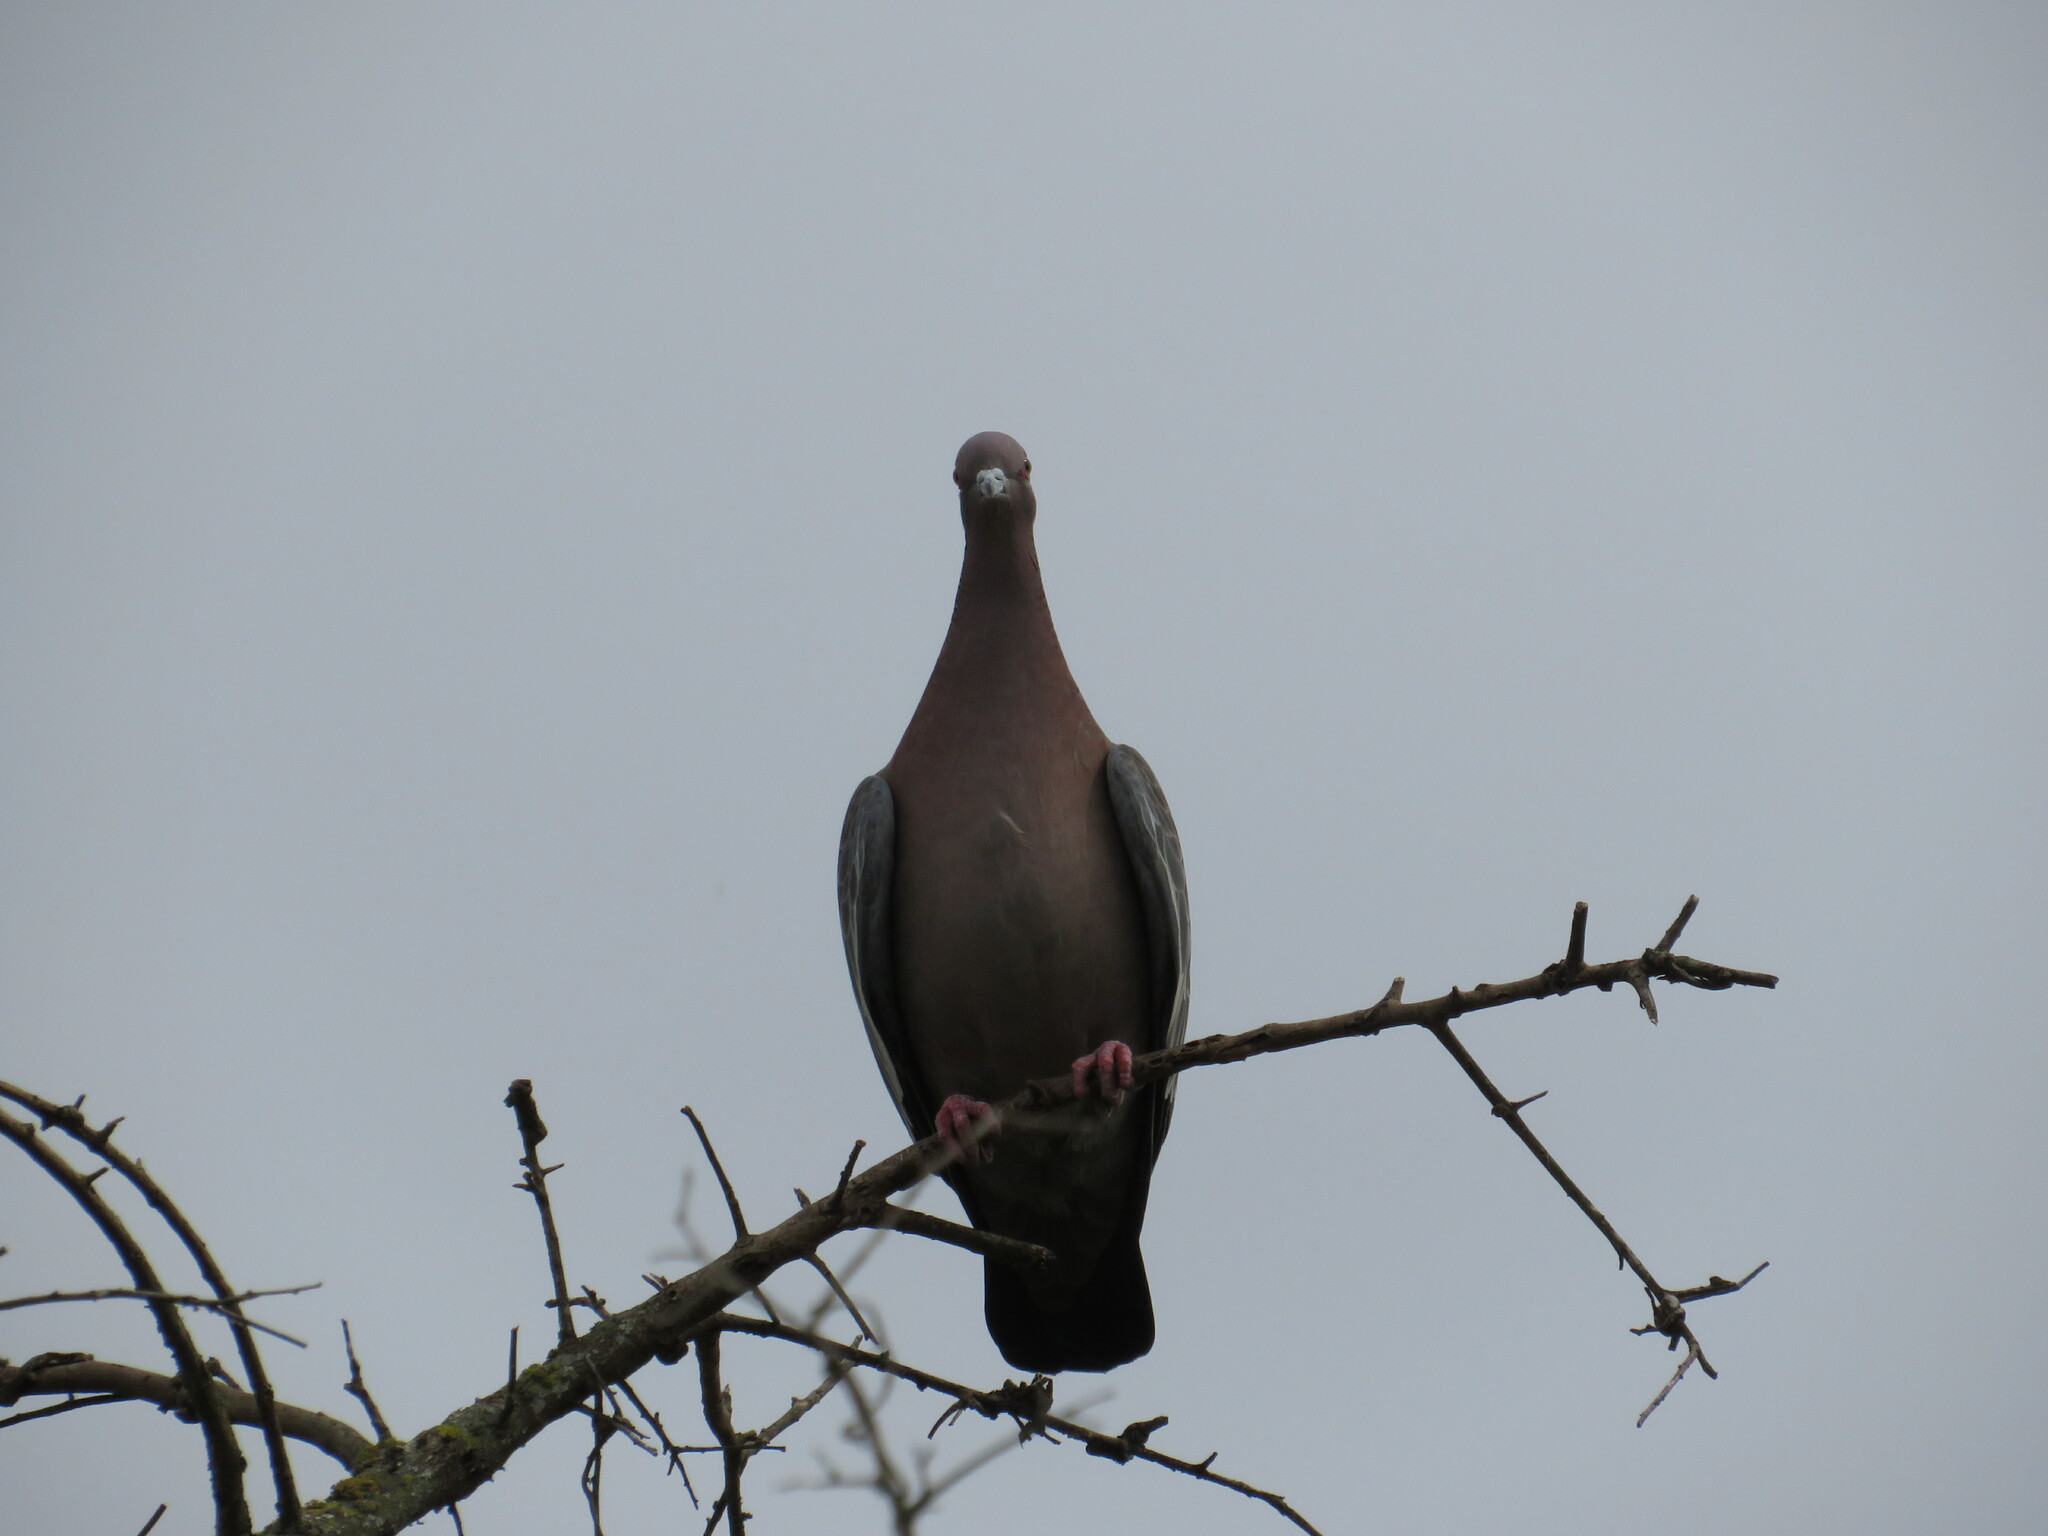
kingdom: Animalia
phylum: Chordata
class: Aves
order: Columbiformes
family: Columbidae
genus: Patagioenas
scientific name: Patagioenas picazuro
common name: Picazuro pigeon
